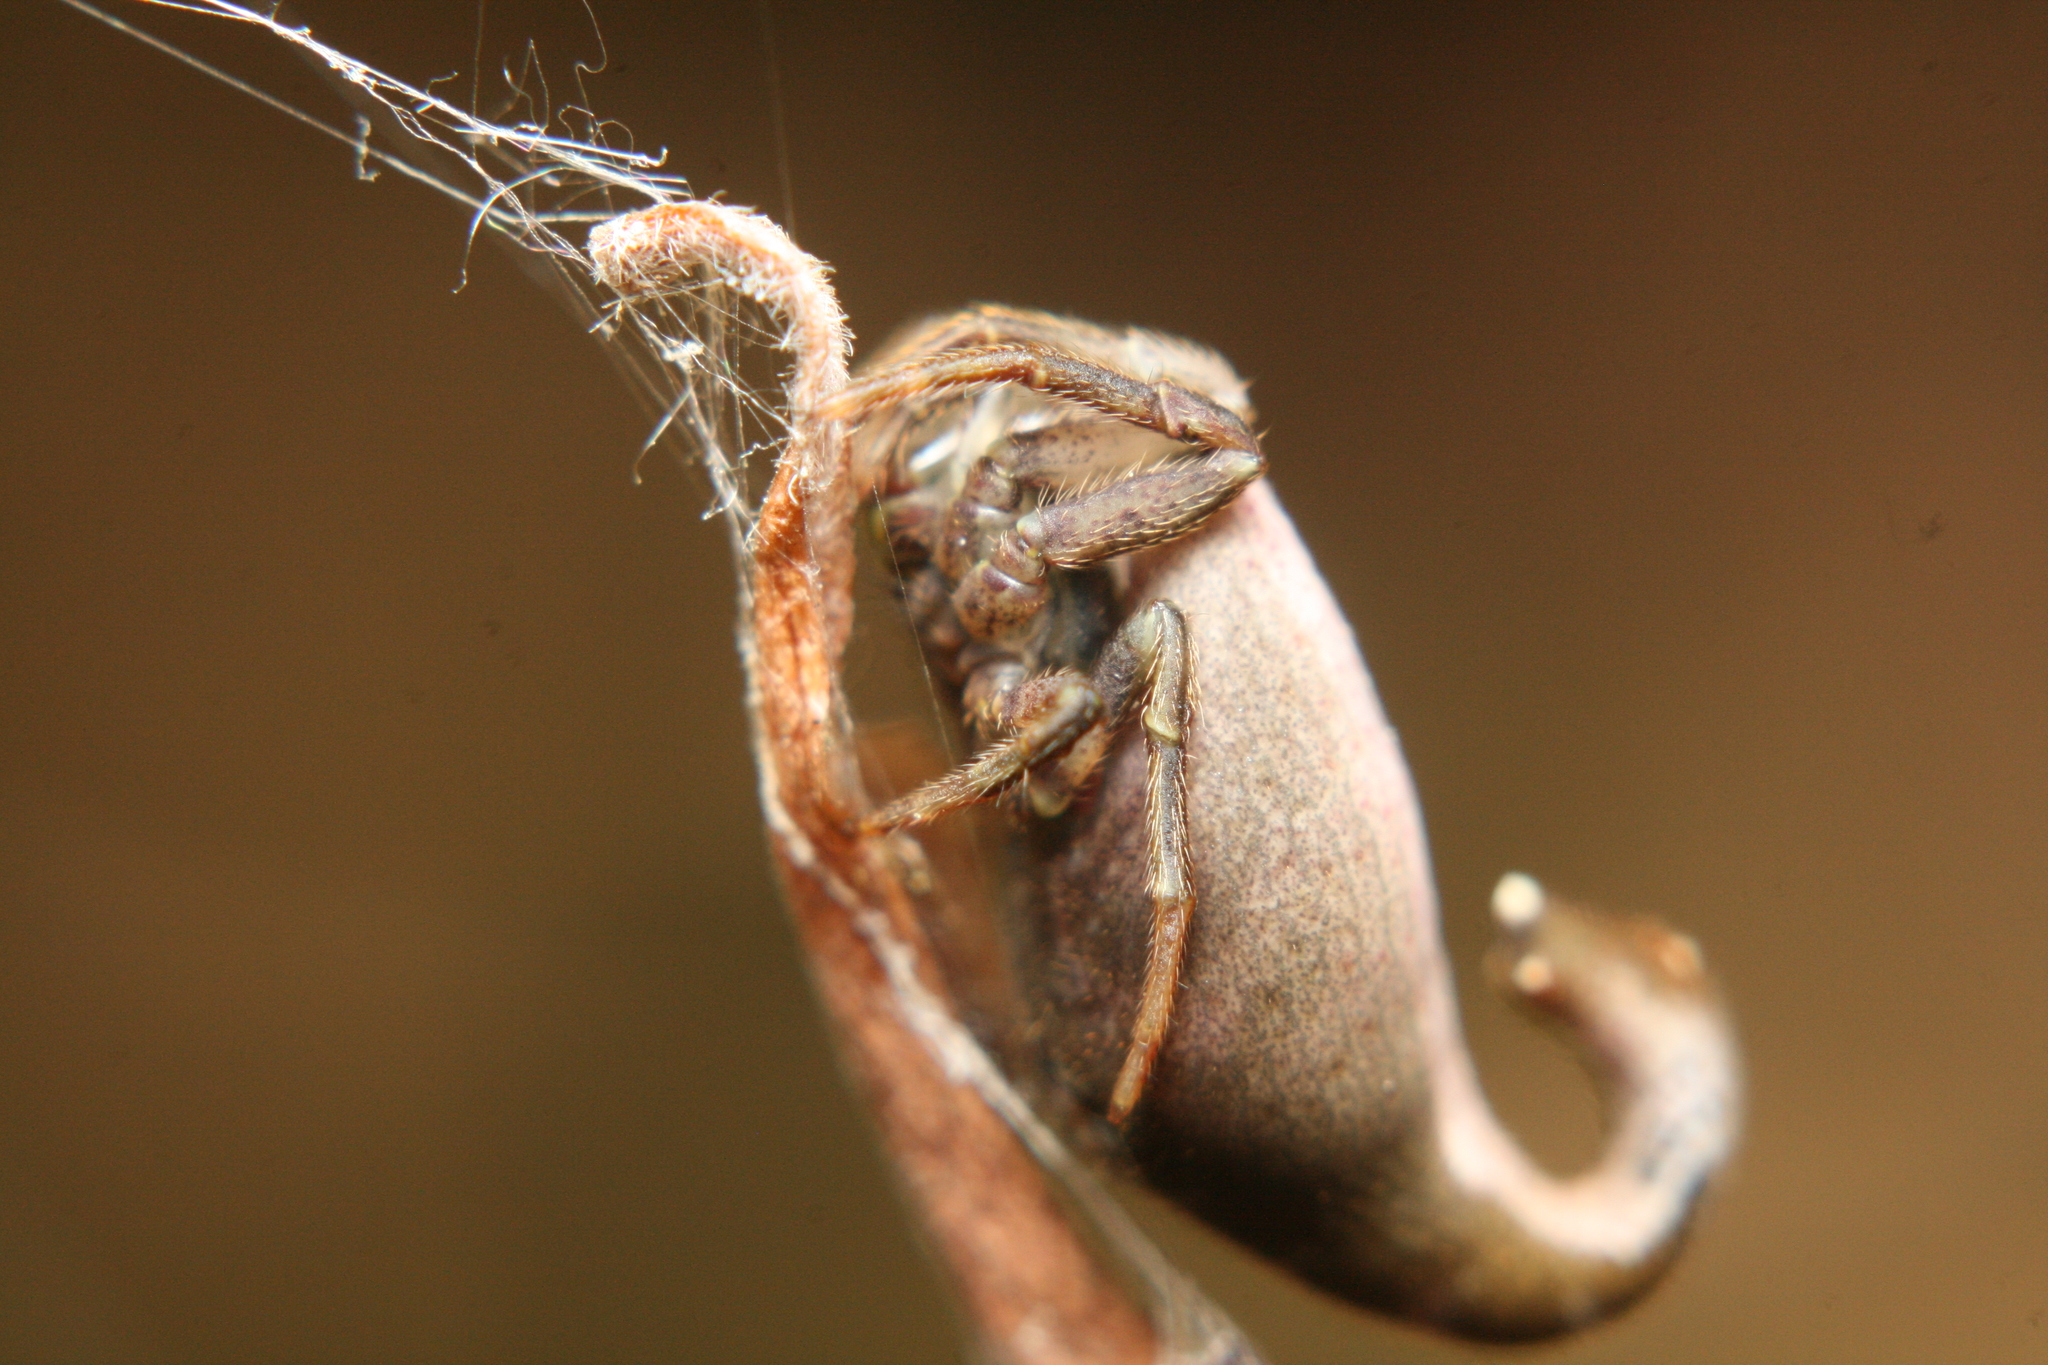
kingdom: Animalia
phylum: Arthropoda
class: Arachnida
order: Araneae
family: Araneidae
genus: Arachnura
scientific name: Arachnura feredayi
